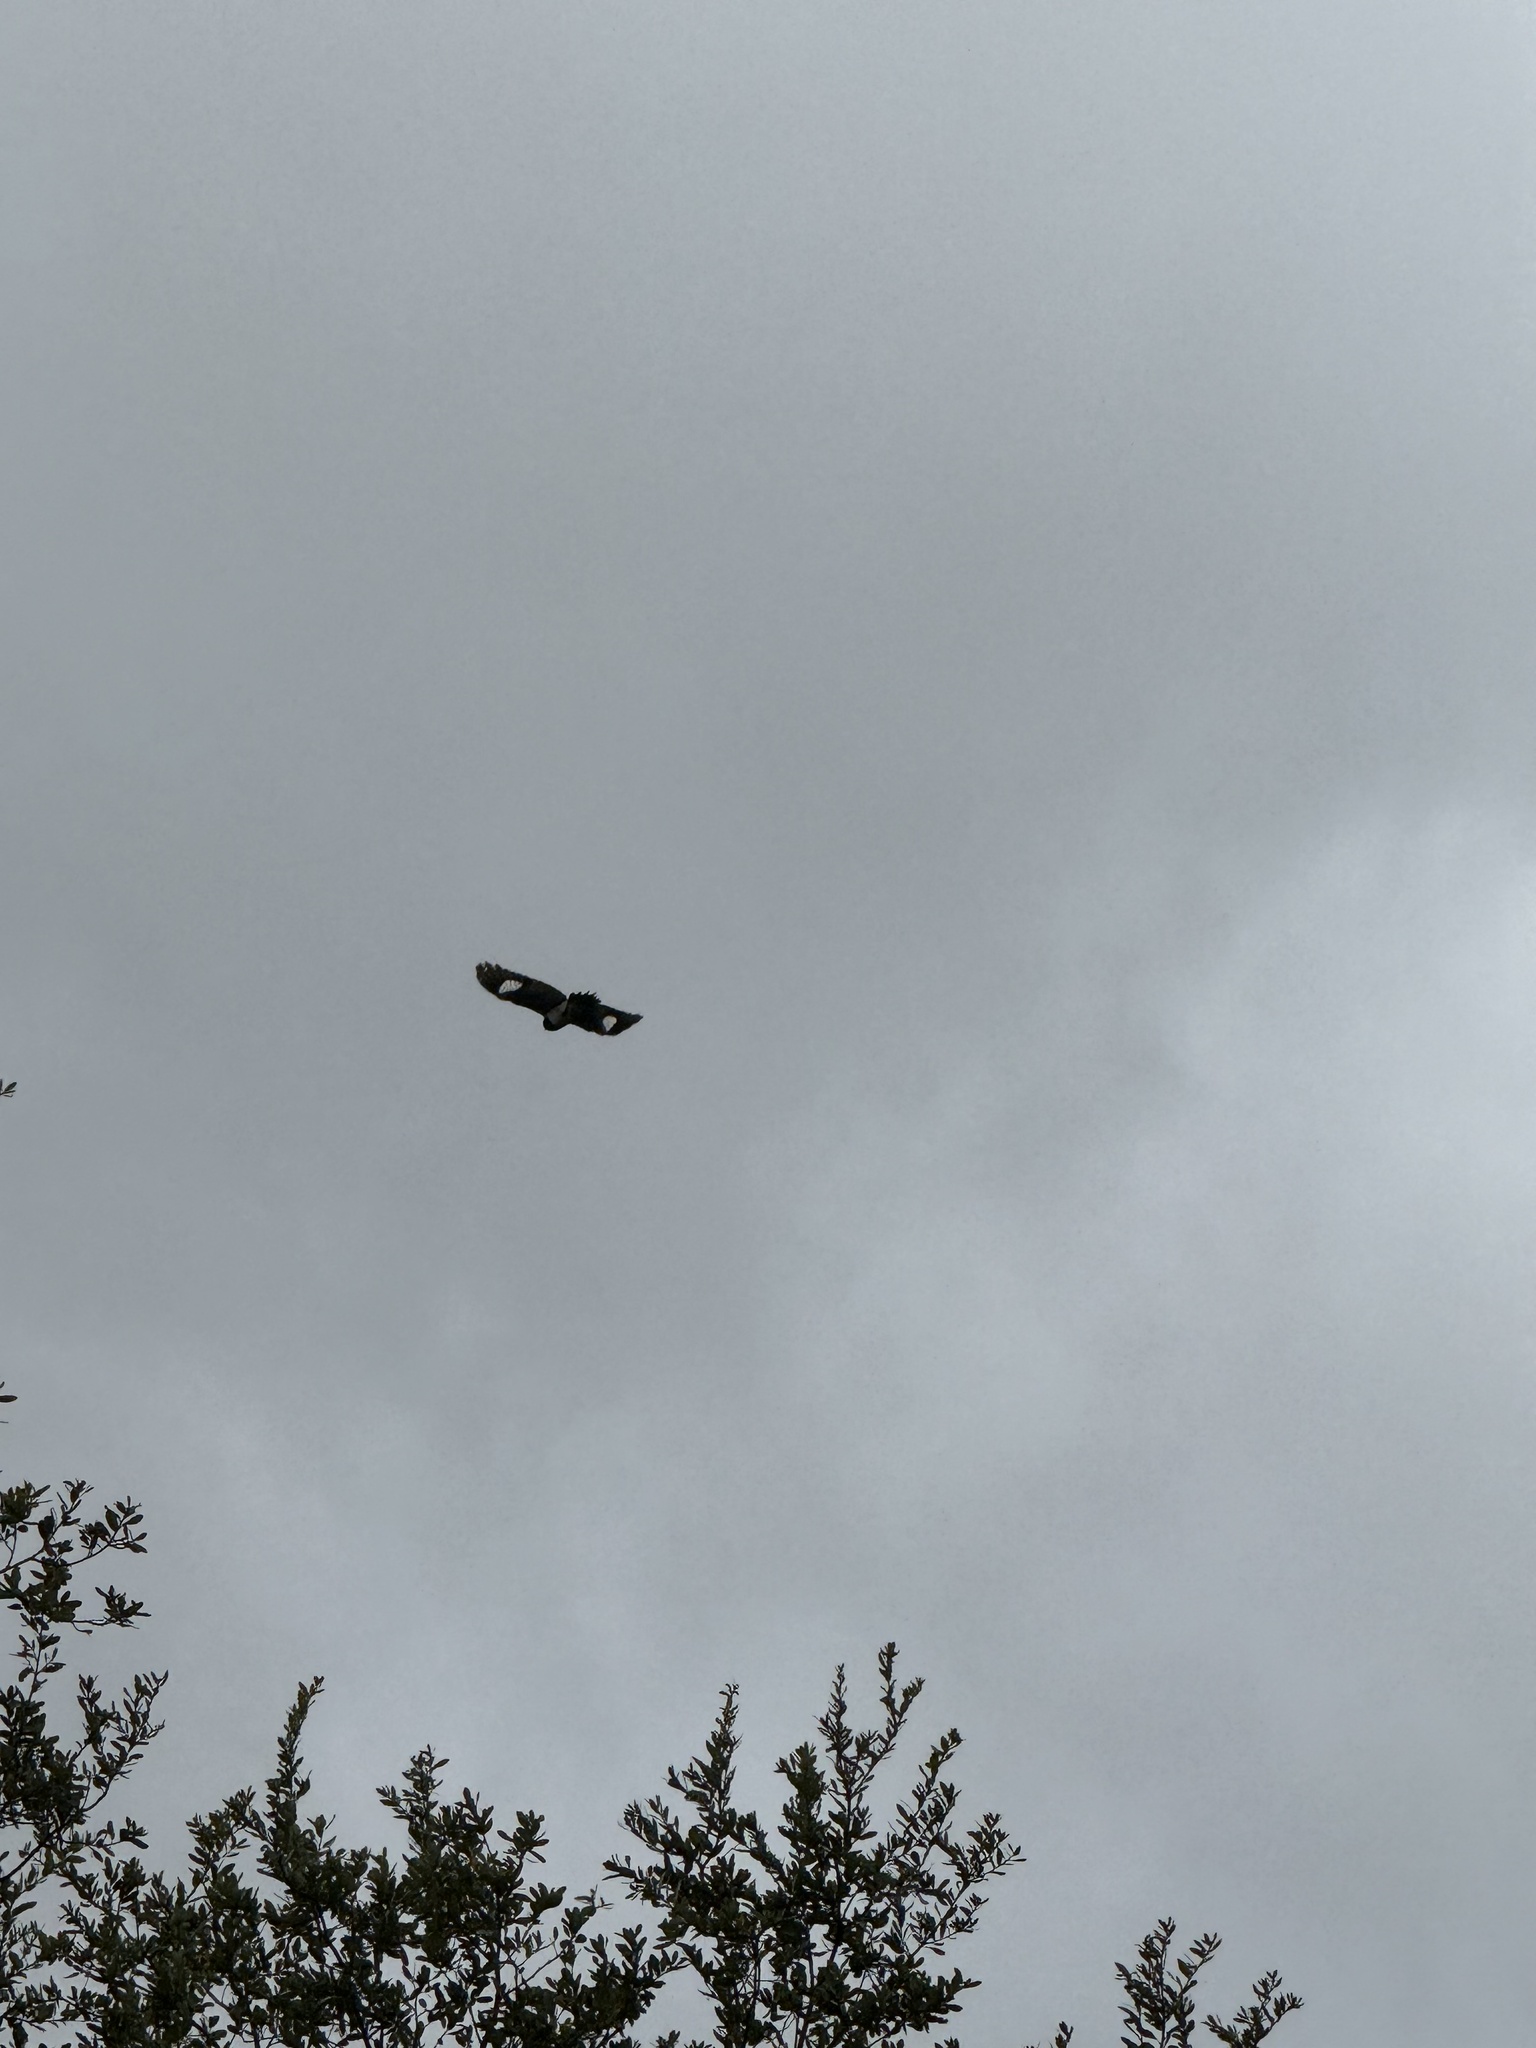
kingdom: Animalia
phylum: Chordata
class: Aves
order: Piciformes
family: Picidae
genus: Melanerpes
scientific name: Melanerpes formicivorus
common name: Acorn woodpecker
